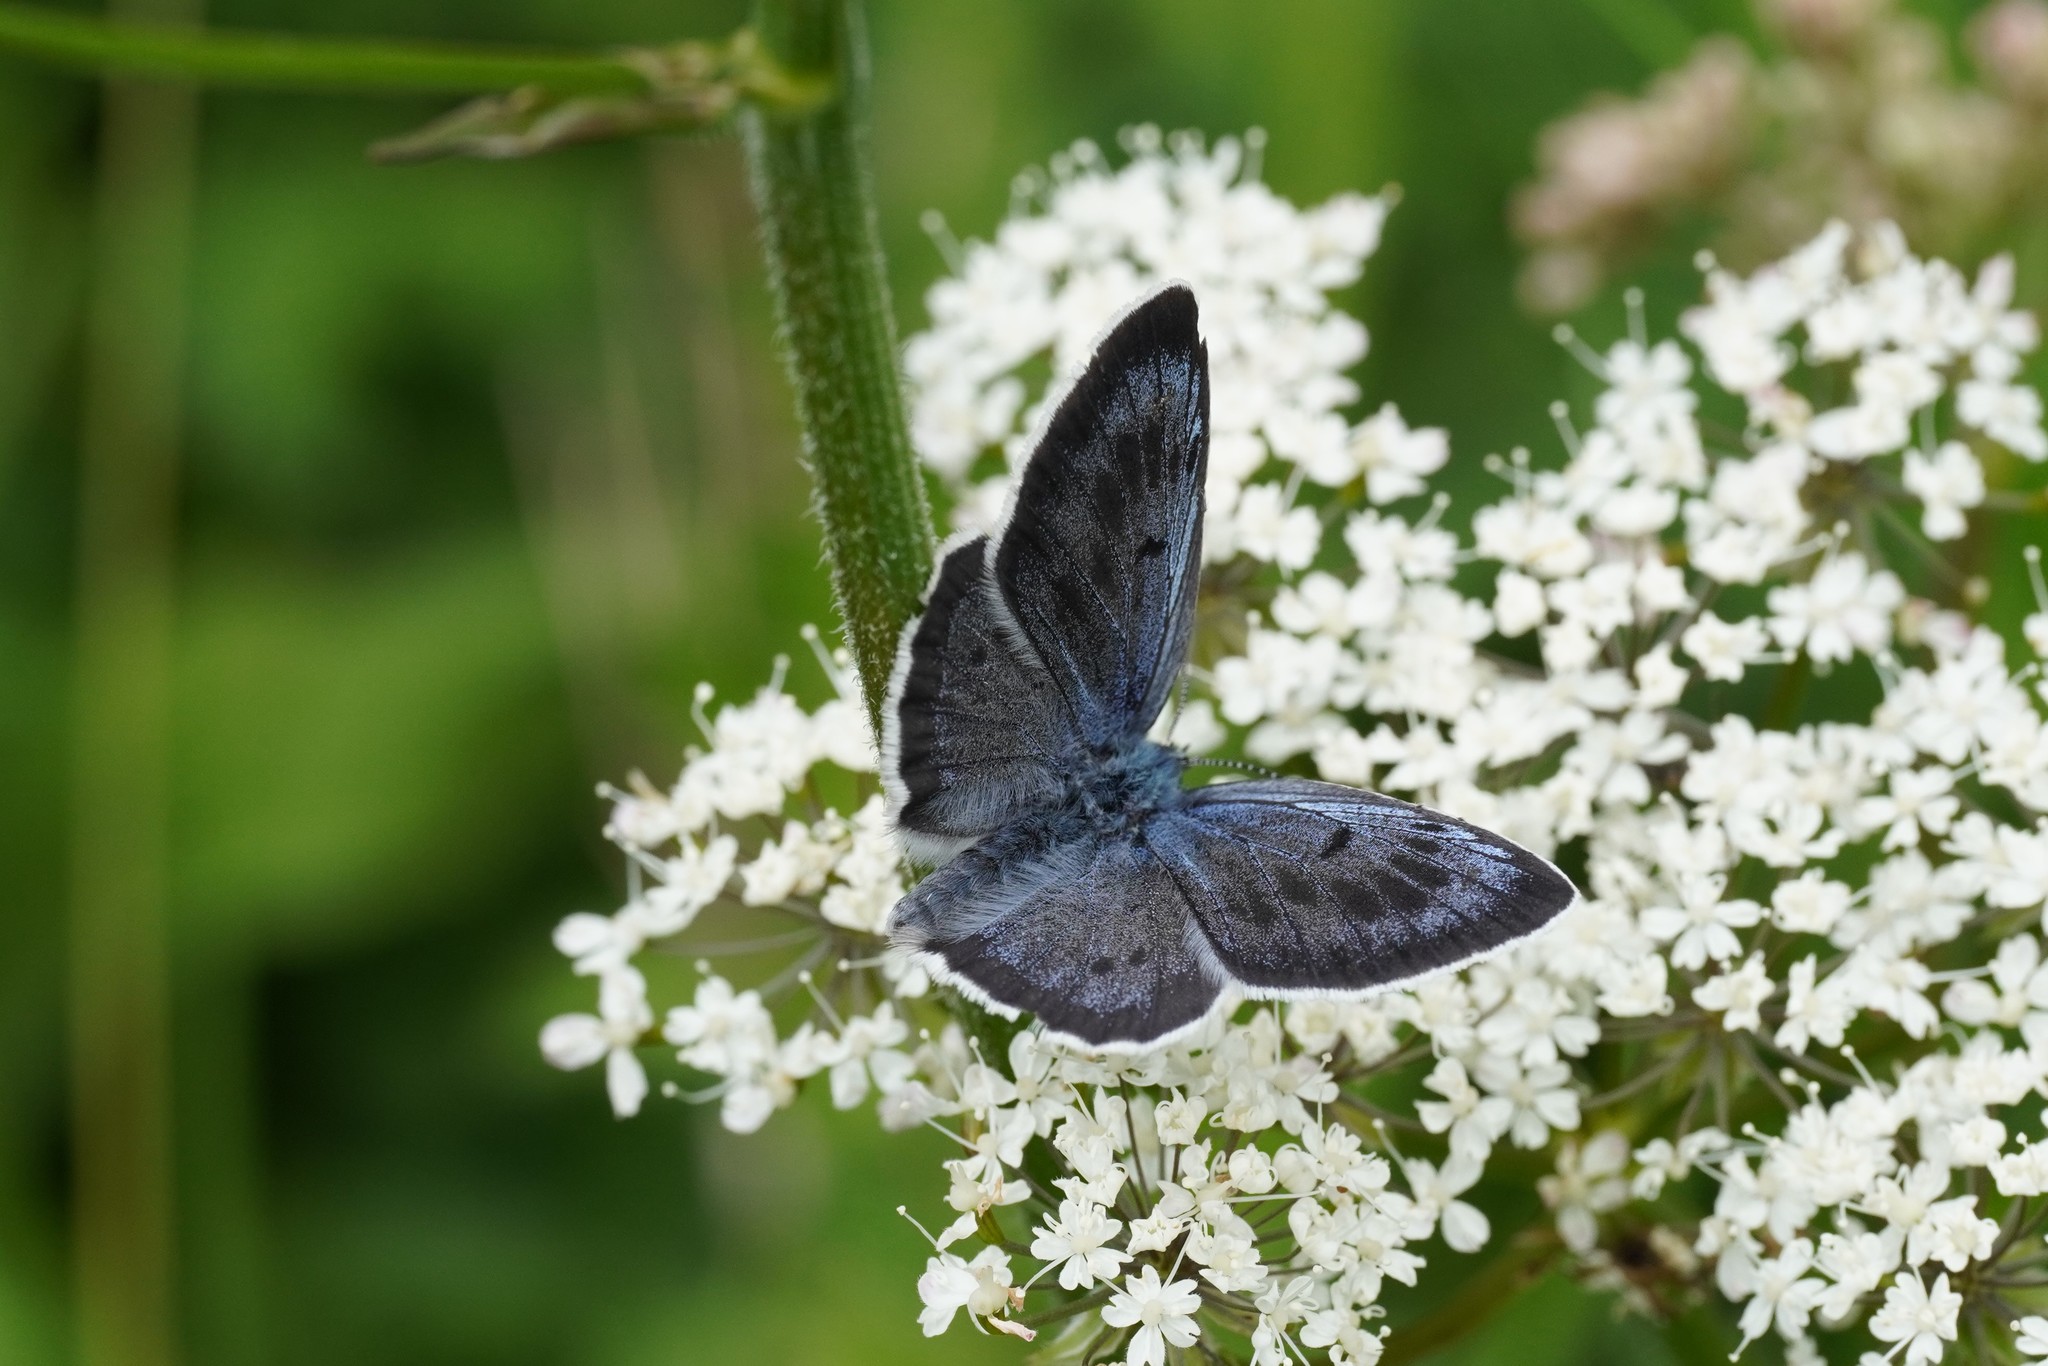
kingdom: Animalia
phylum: Arthropoda
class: Insecta
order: Lepidoptera
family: Lycaenidae
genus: Maculinea
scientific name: Maculinea arion
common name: Large blue
